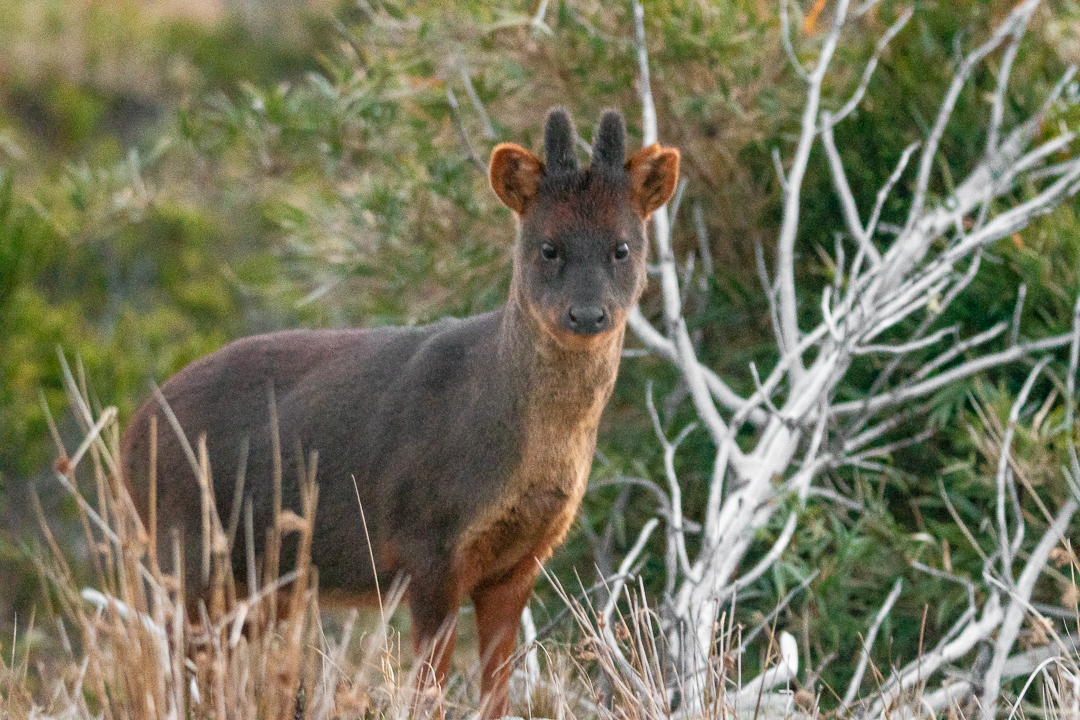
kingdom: Animalia
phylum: Chordata
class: Mammalia
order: Artiodactyla
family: Cervidae
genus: Pudu
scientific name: Pudu puda
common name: Southern pudu
